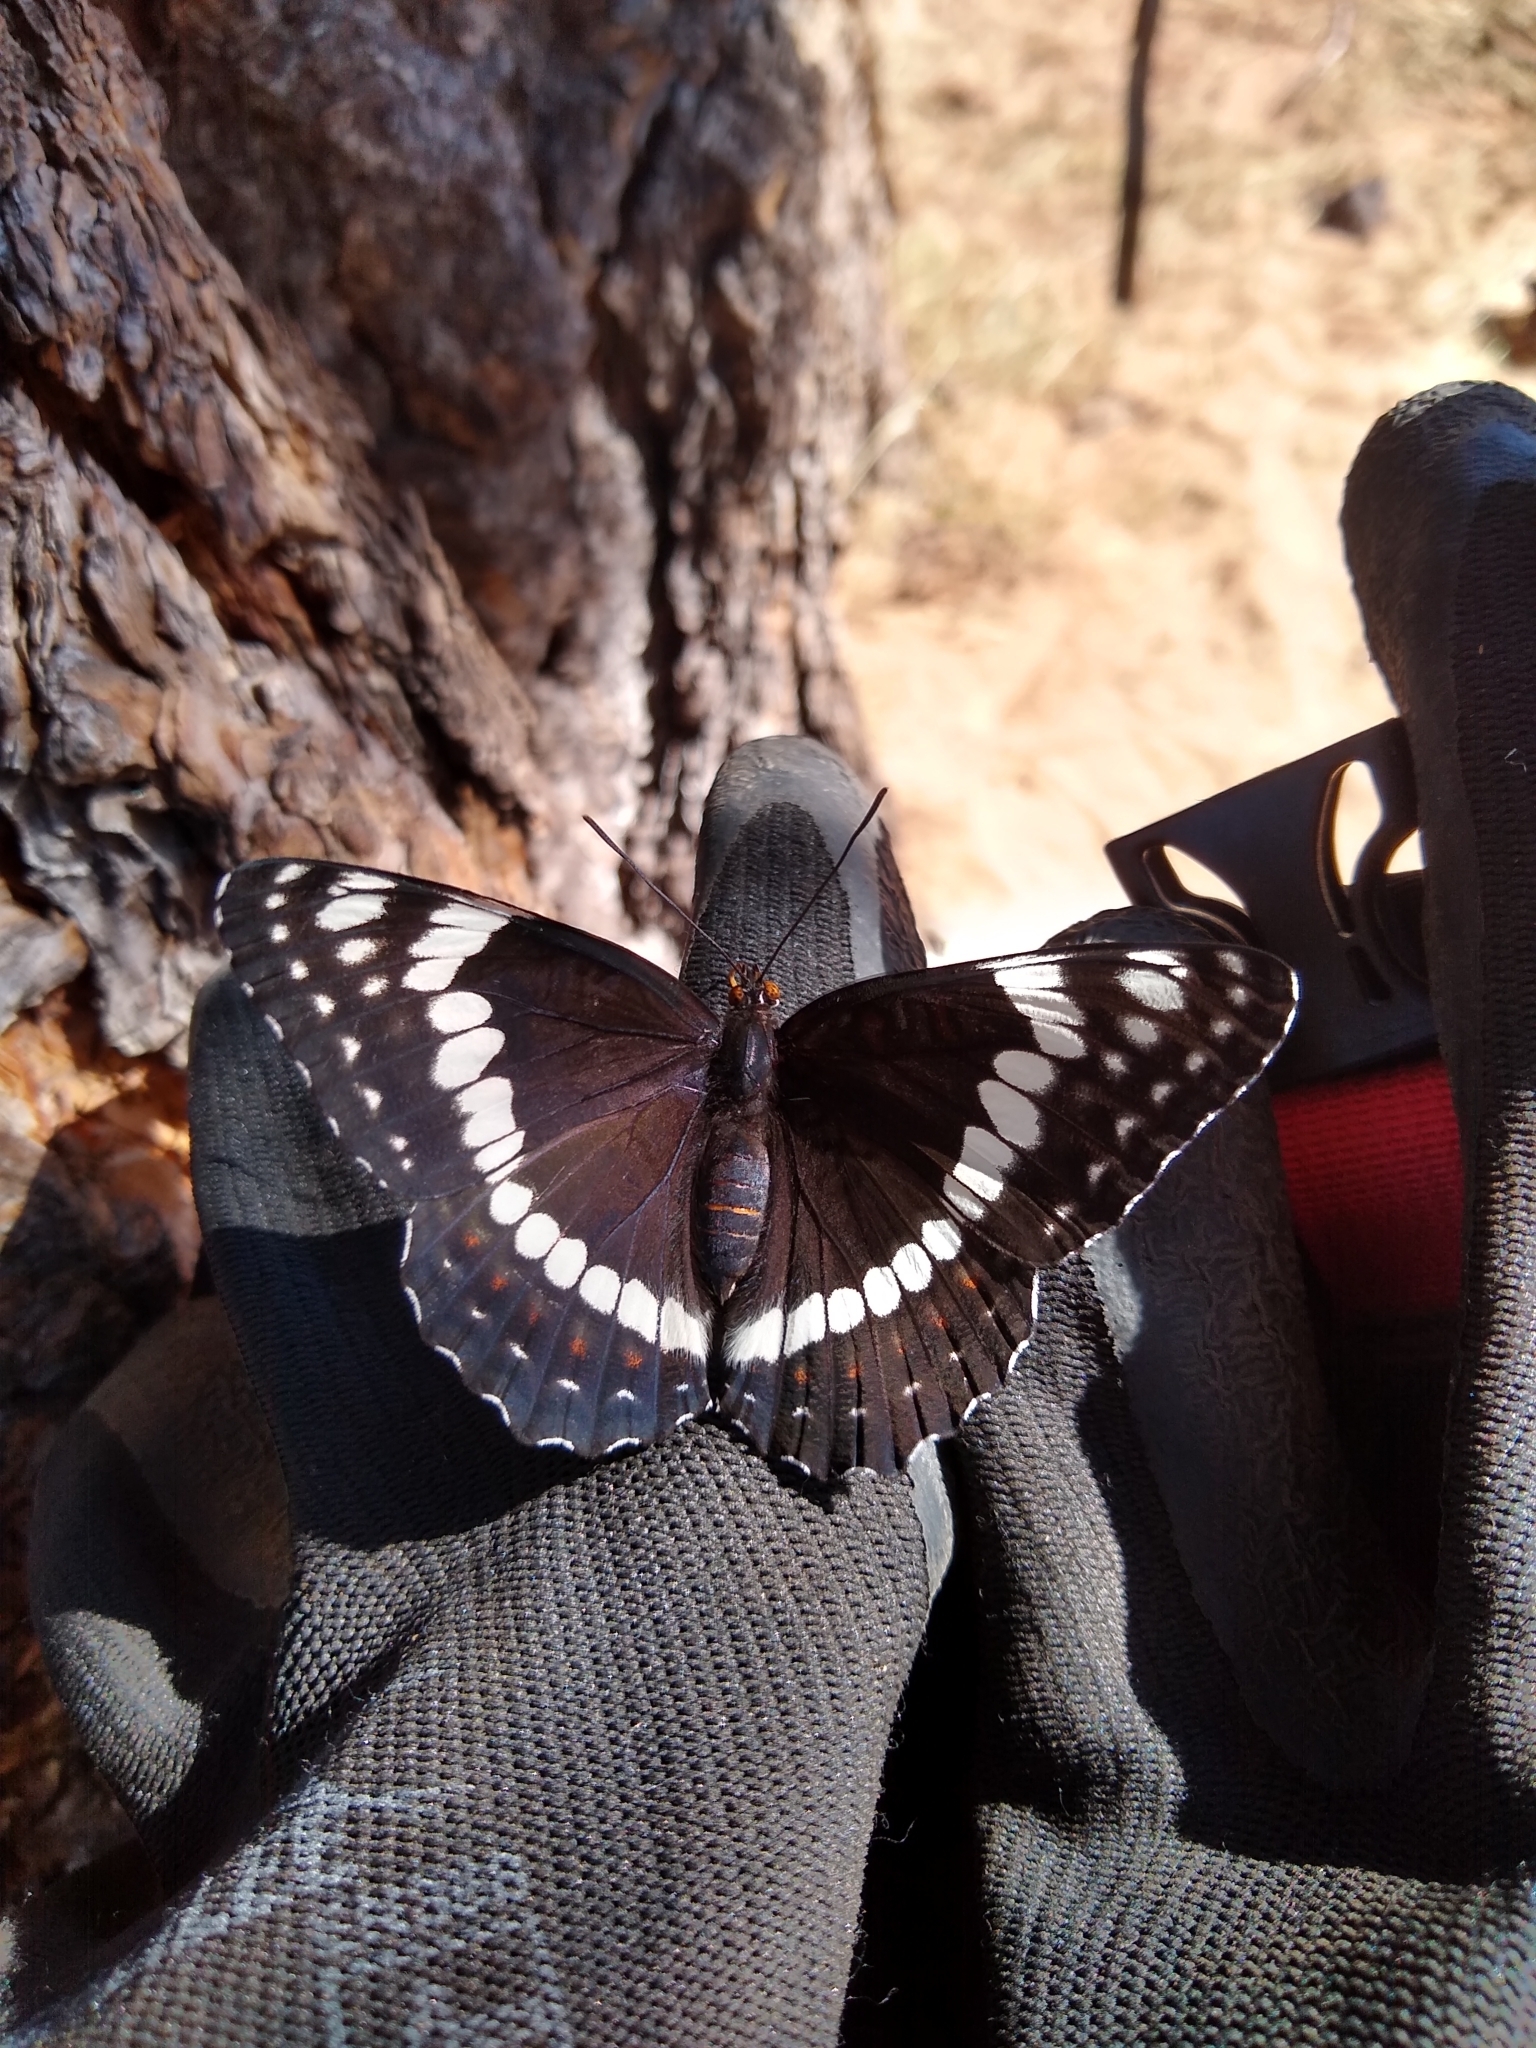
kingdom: Animalia
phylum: Arthropoda
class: Insecta
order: Lepidoptera
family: Nymphalidae
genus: Limenitis
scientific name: Limenitis weidemeyerii
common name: Weidemeyer's admiral
